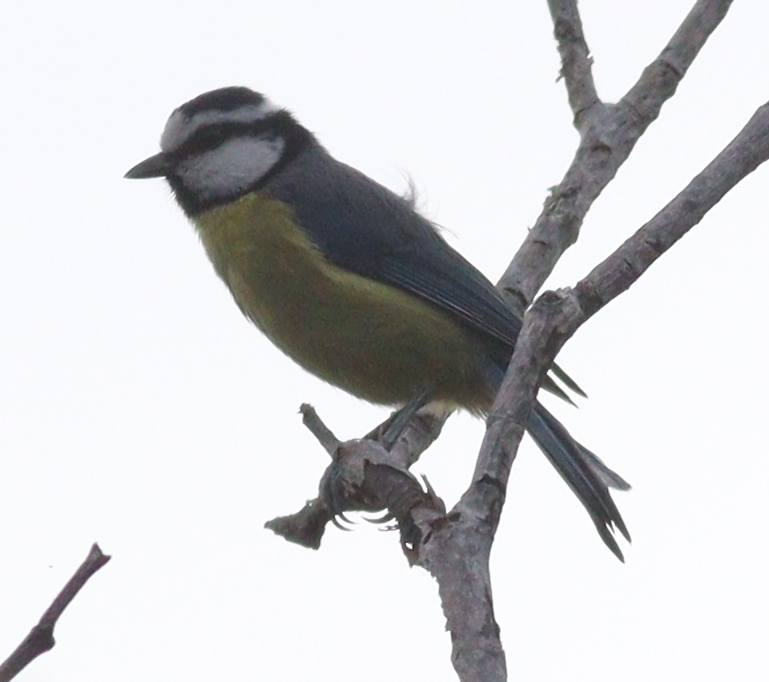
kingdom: Animalia
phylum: Chordata
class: Aves
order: Passeriformes
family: Paridae
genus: Cyanistes
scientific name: Cyanistes teneriffae
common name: African blue tit
